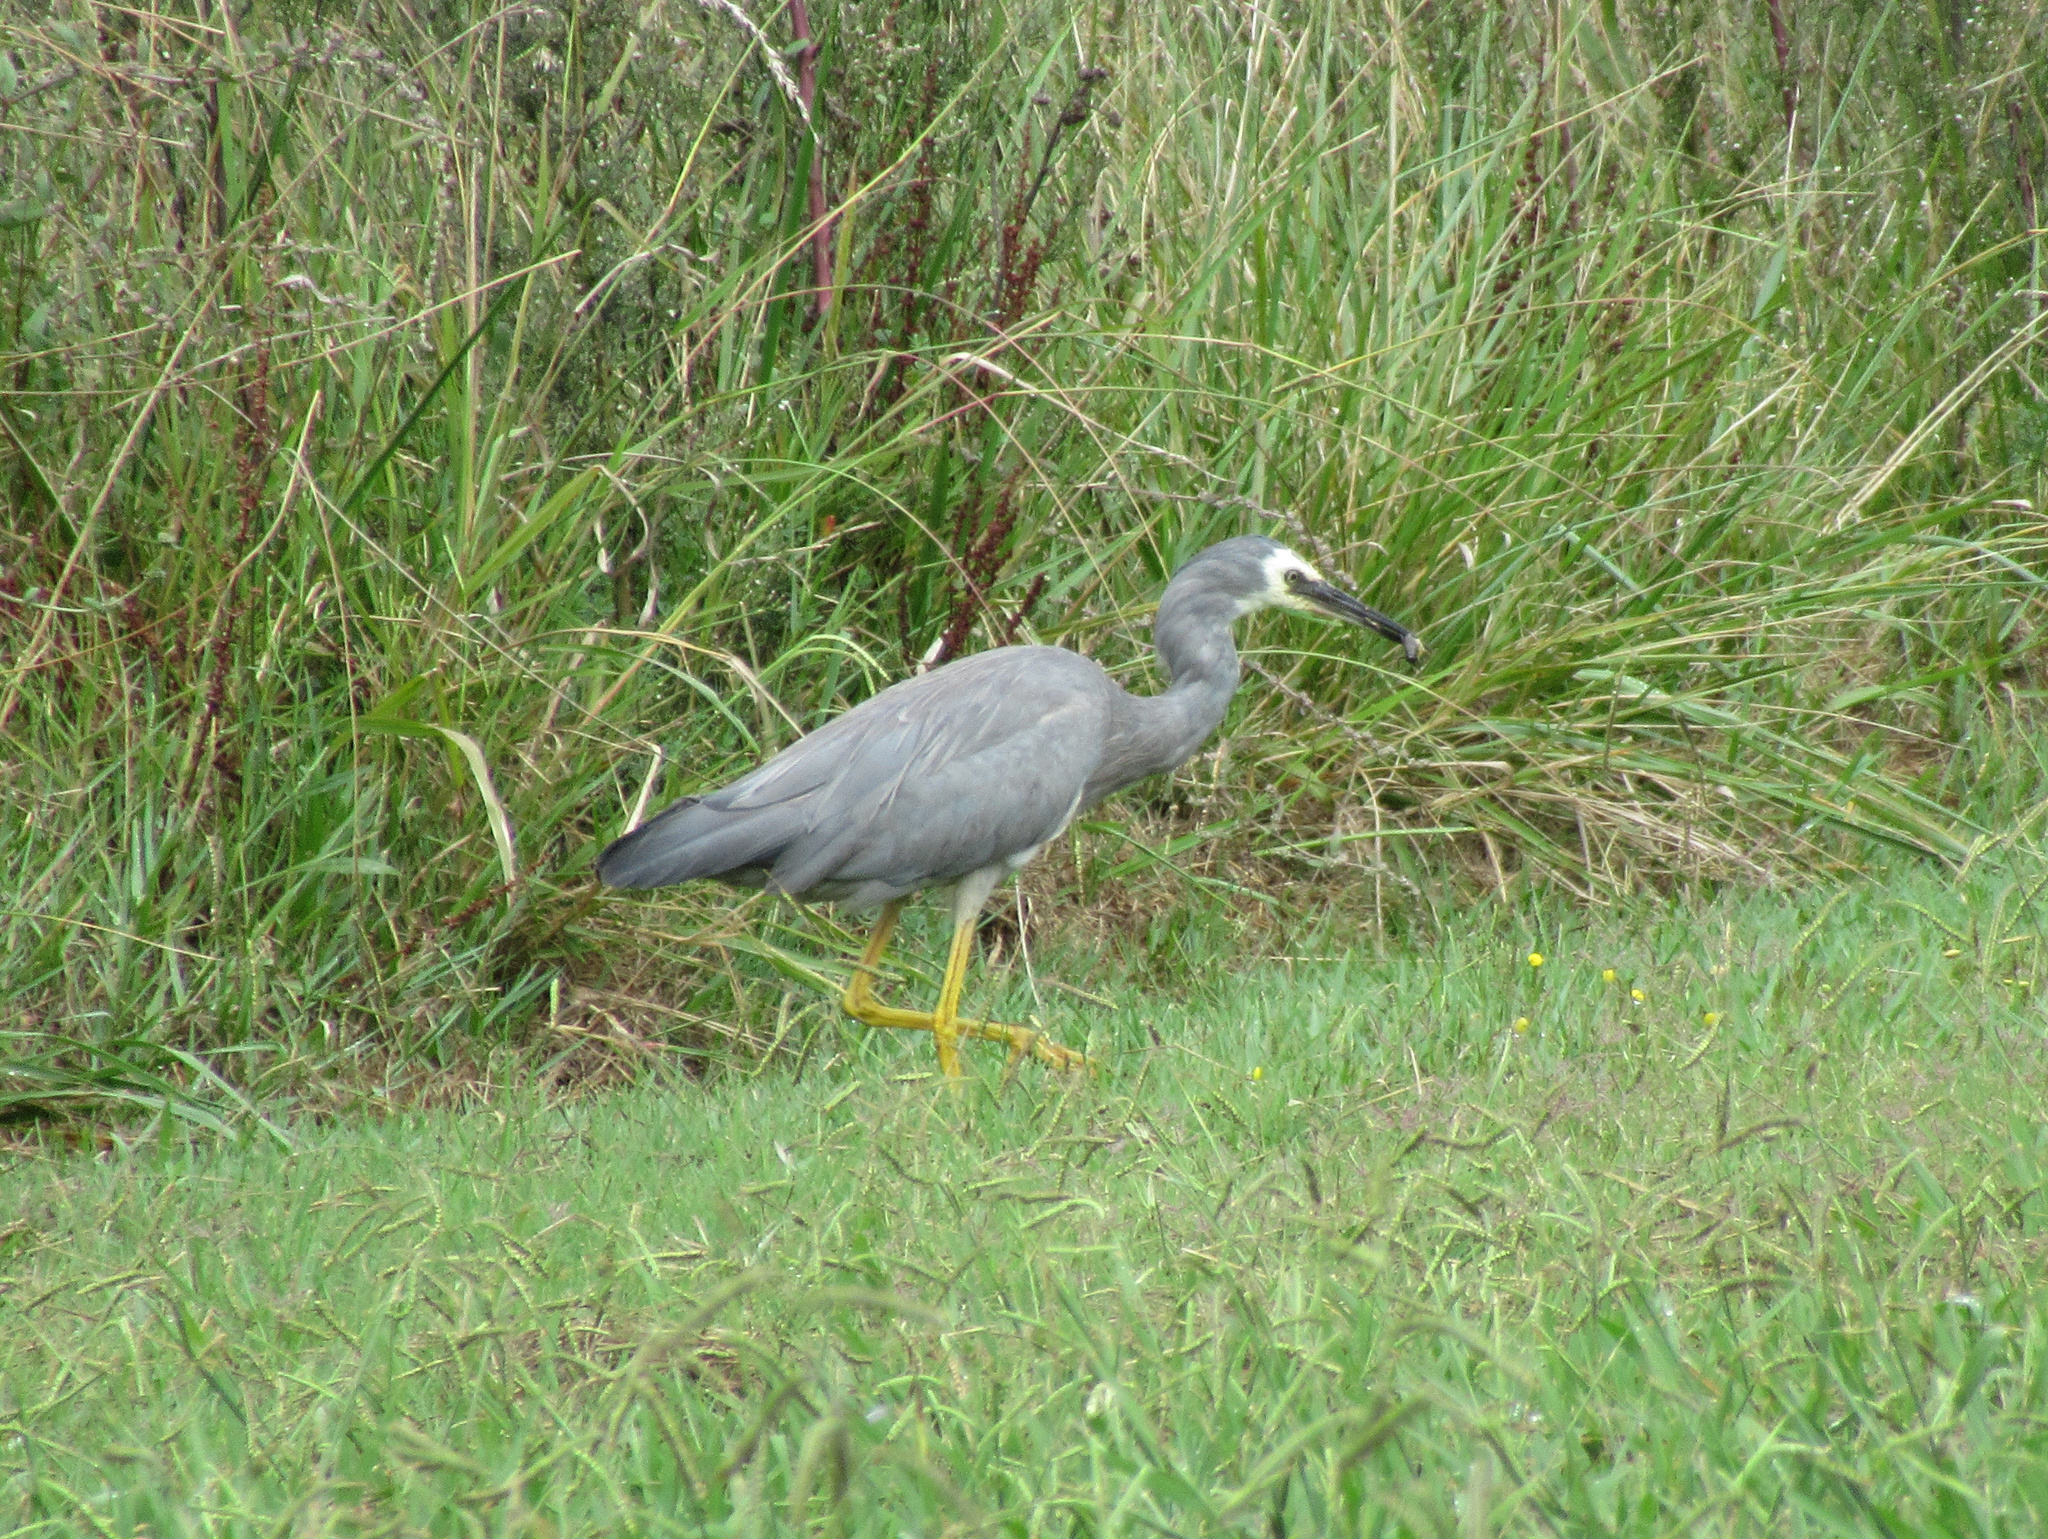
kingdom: Animalia
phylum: Chordata
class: Aves
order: Pelecaniformes
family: Ardeidae
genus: Egretta
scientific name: Egretta novaehollandiae
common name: White-faced heron
